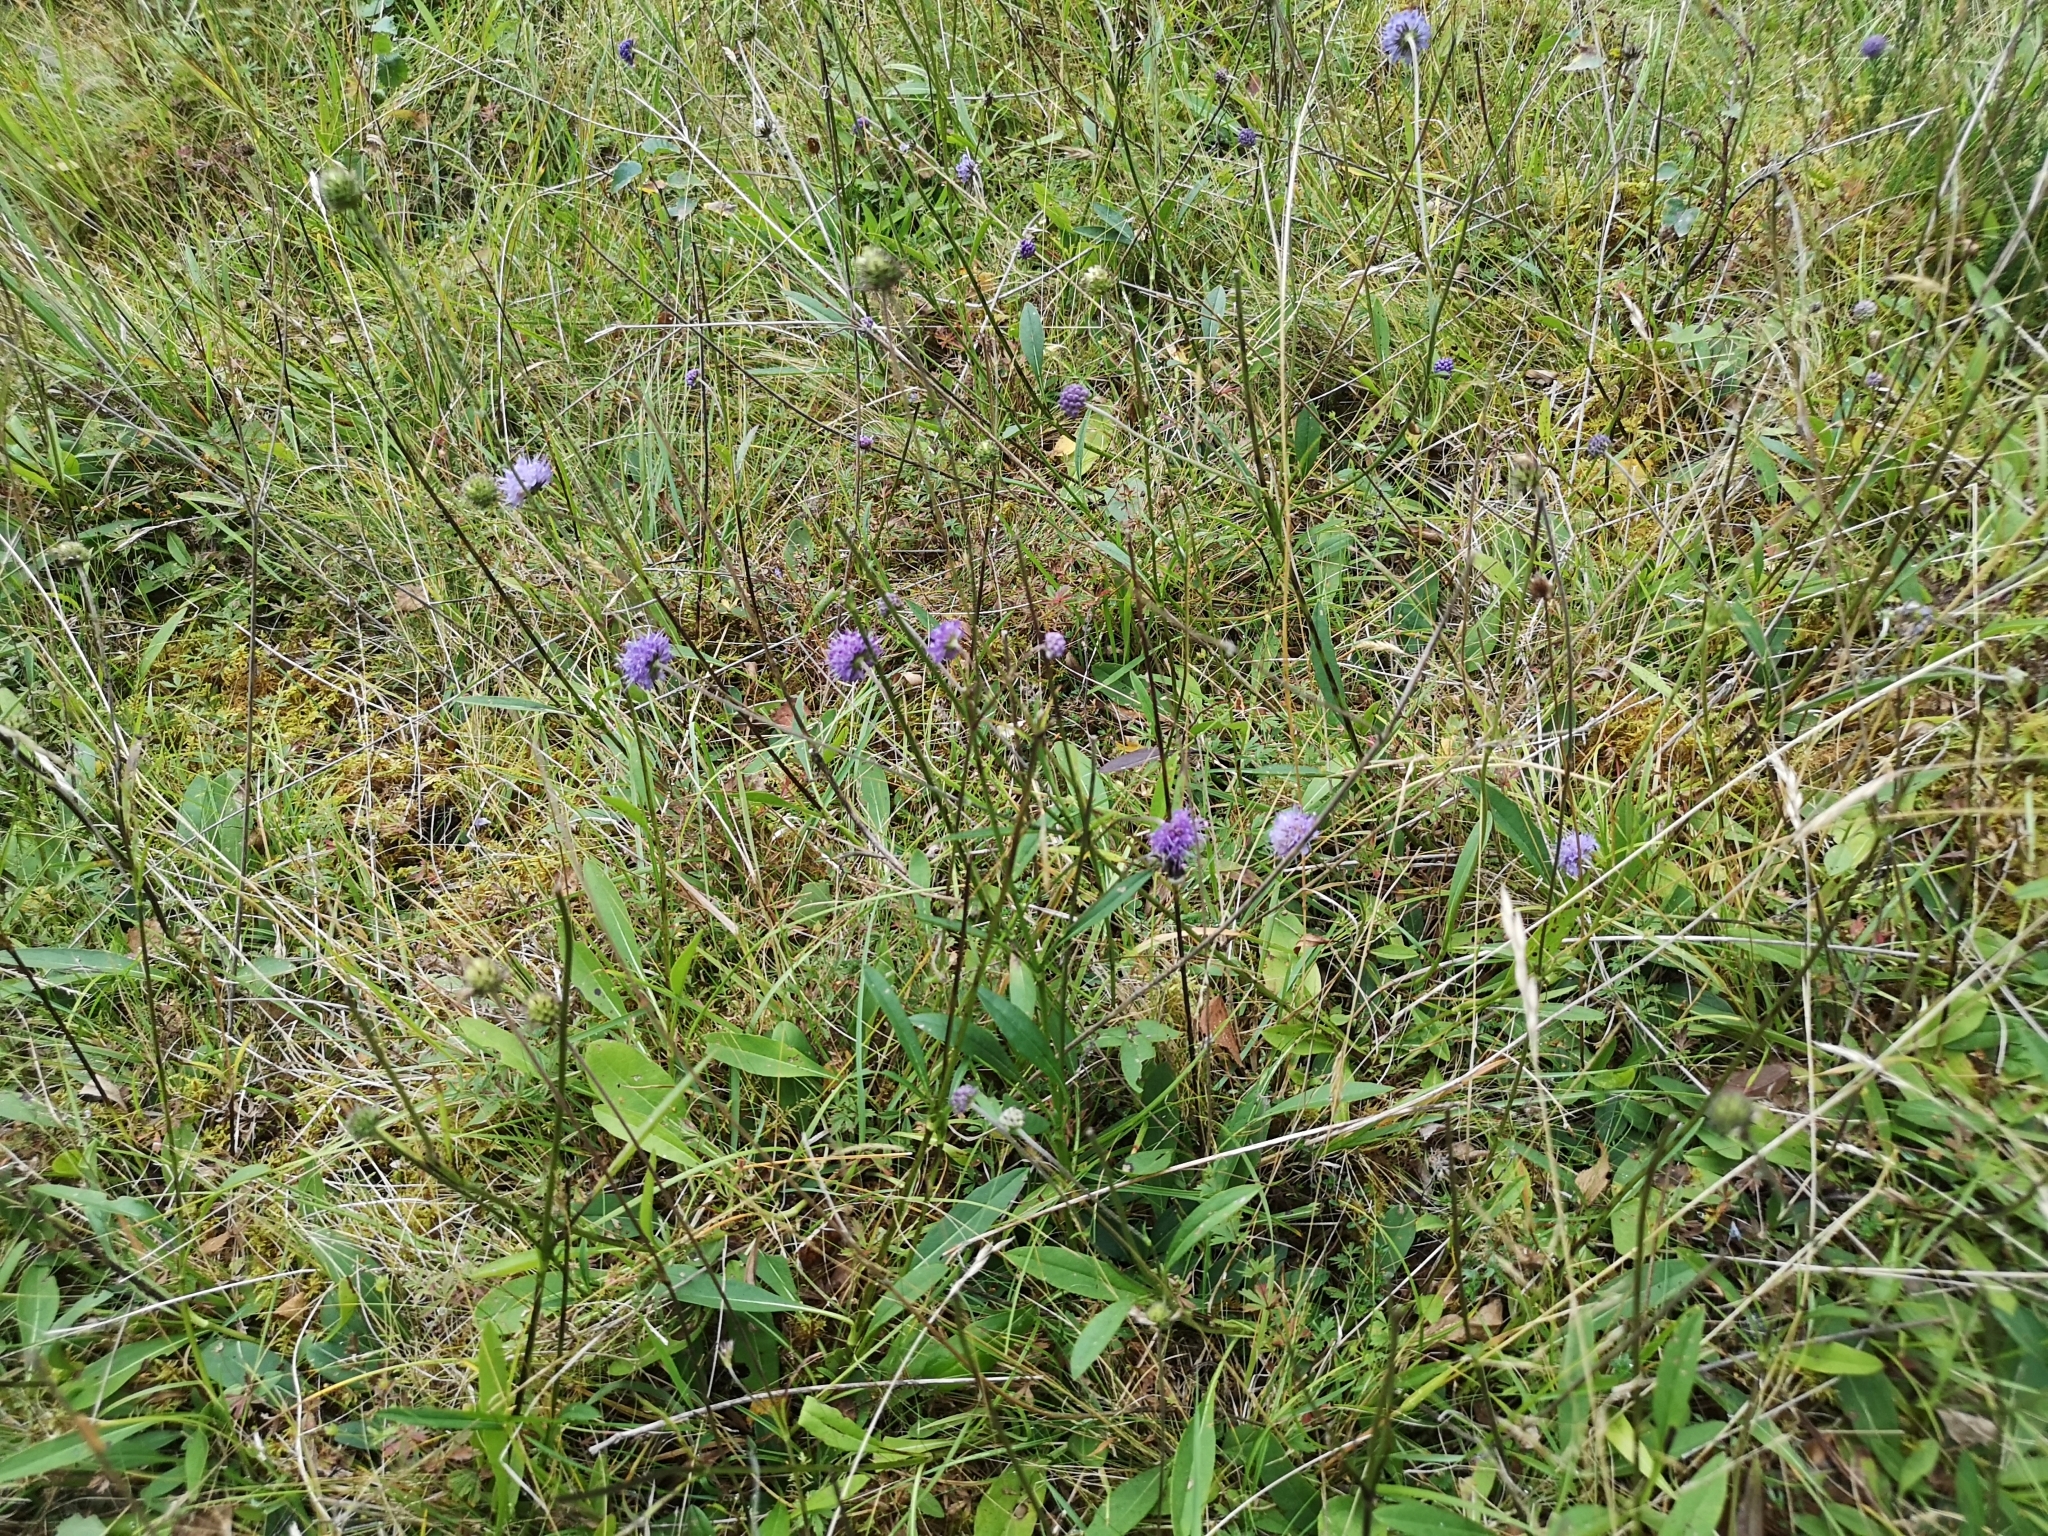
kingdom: Plantae
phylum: Tracheophyta
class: Magnoliopsida
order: Dipsacales
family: Caprifoliaceae
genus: Succisa
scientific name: Succisa pratensis
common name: Devil's-bit
